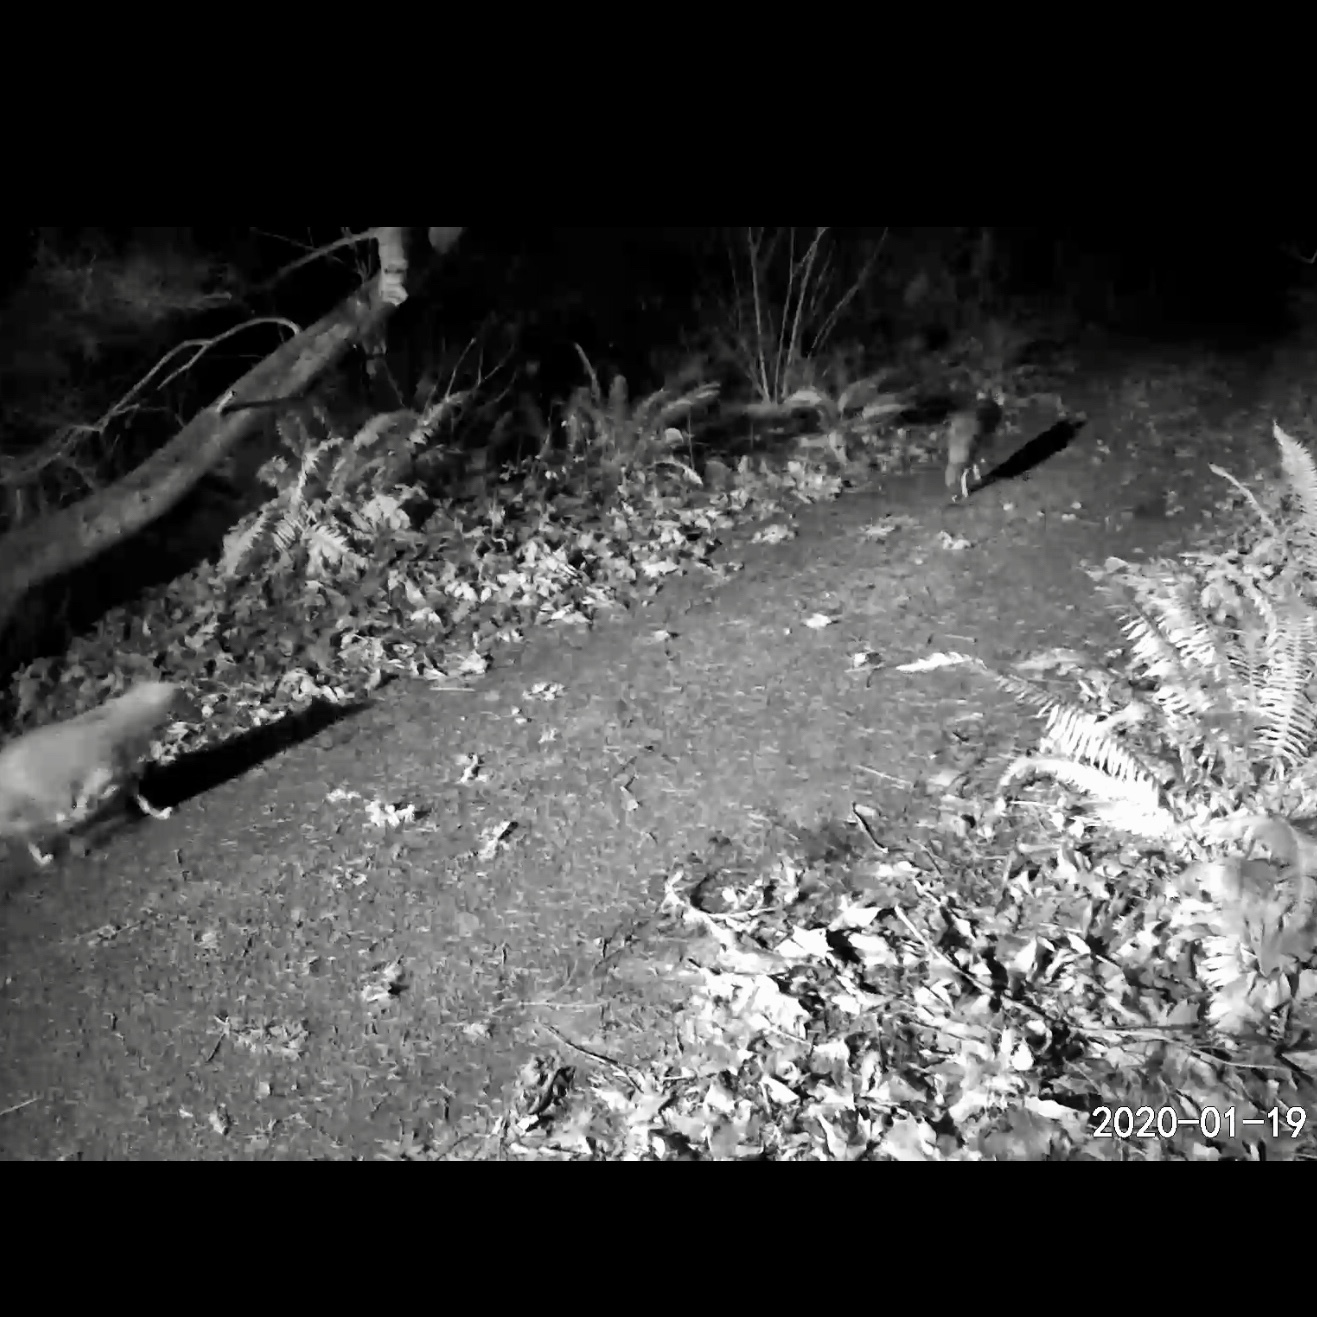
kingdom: Animalia
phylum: Chordata
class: Mammalia
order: Carnivora
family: Canidae
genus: Canis
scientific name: Canis latrans
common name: Coyote
